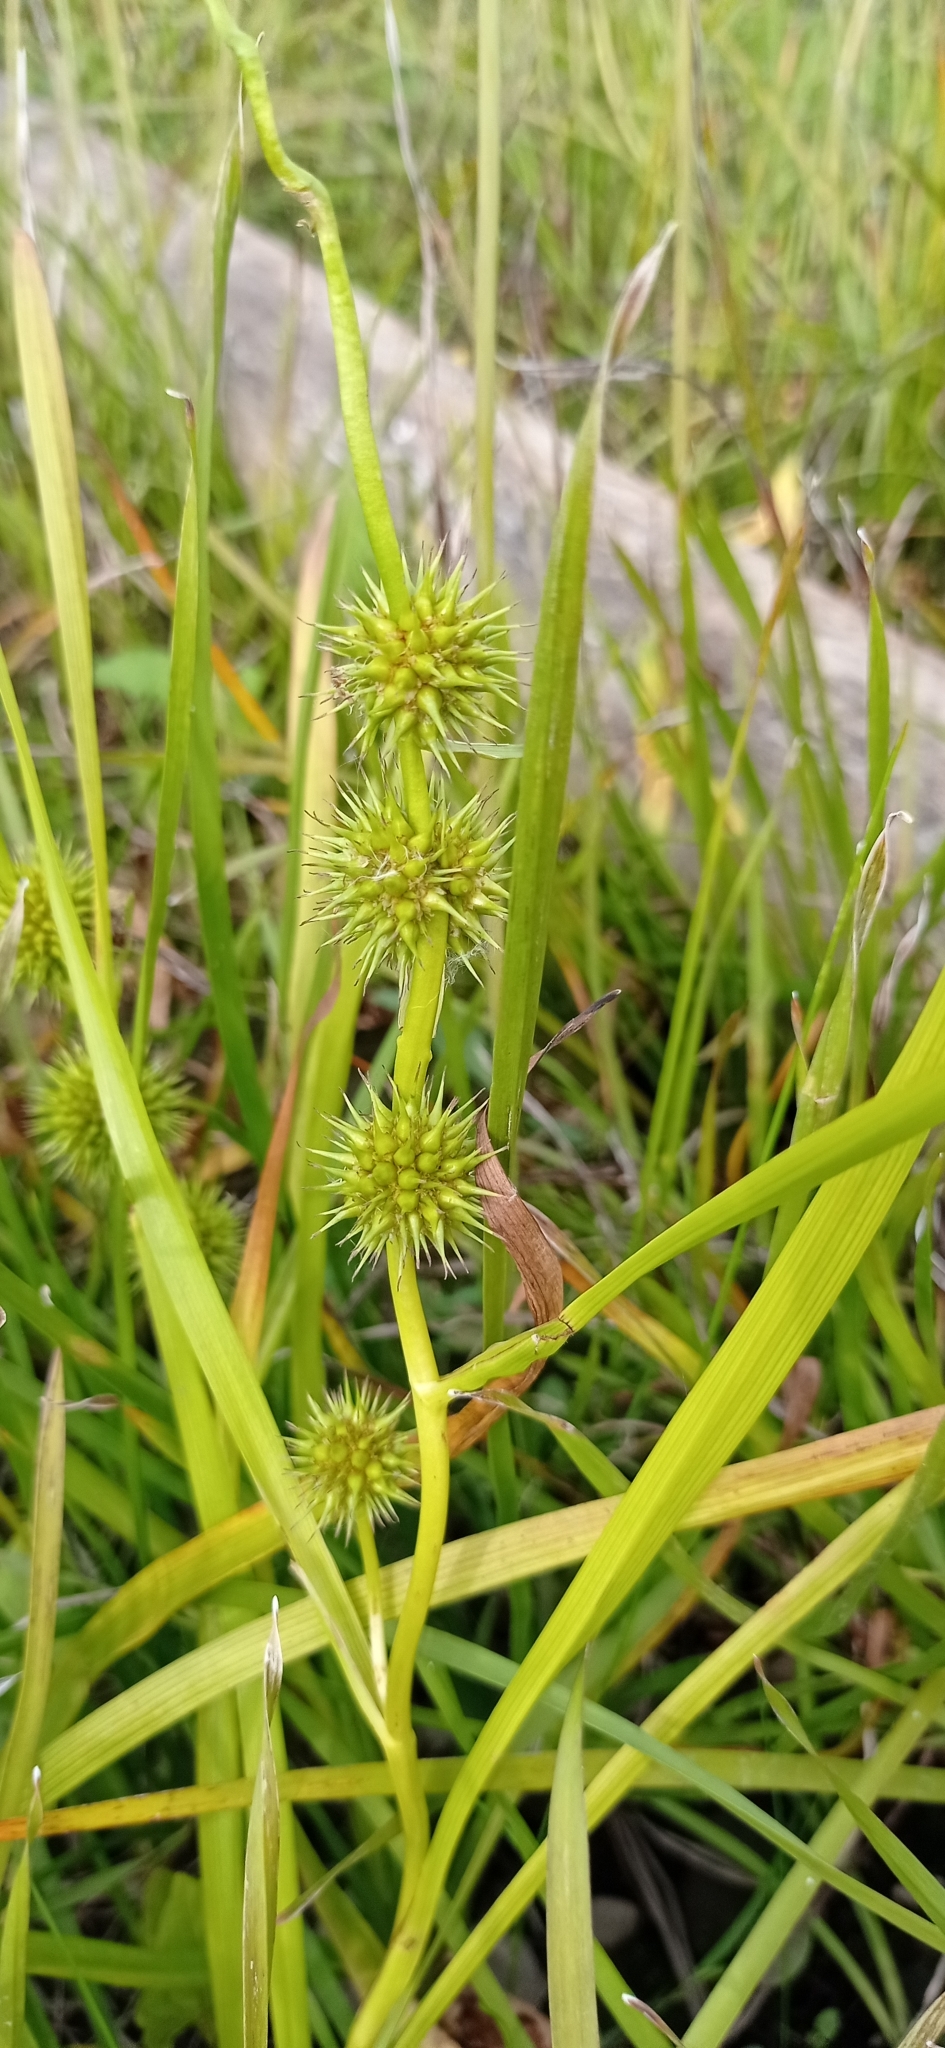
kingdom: Plantae
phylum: Tracheophyta
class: Liliopsida
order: Poales
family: Typhaceae
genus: Sparganium
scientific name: Sparganium emersum
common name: Unbranched bur-reed
